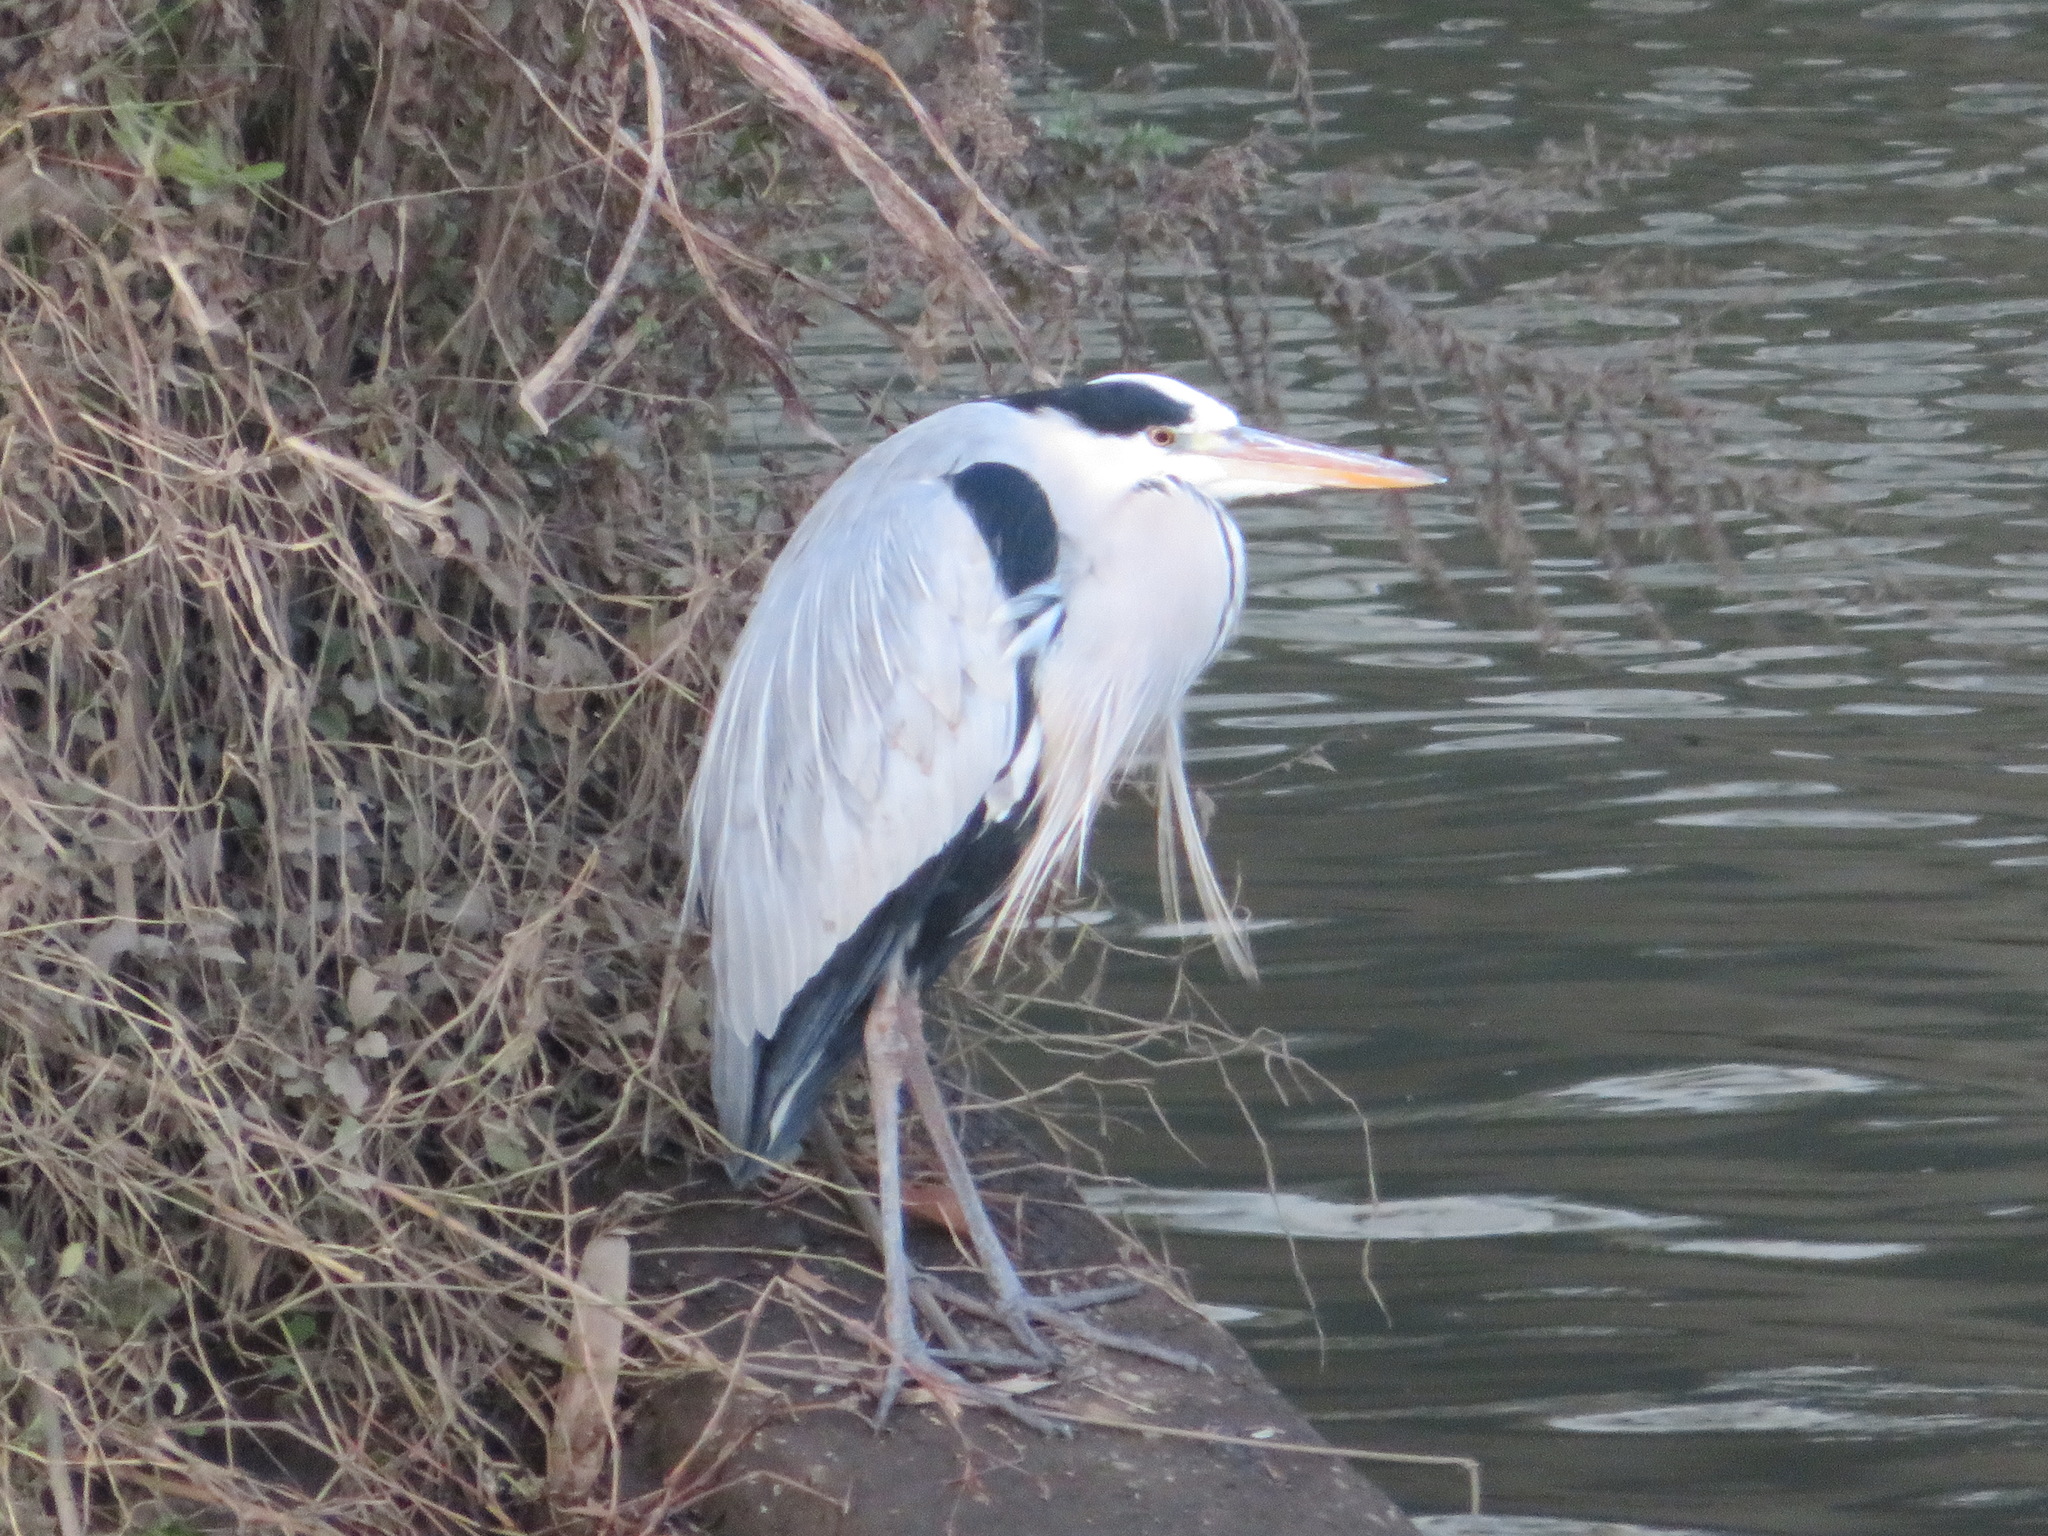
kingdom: Animalia
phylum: Chordata
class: Aves
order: Pelecaniformes
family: Ardeidae
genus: Ardea
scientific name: Ardea cinerea
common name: Grey heron
